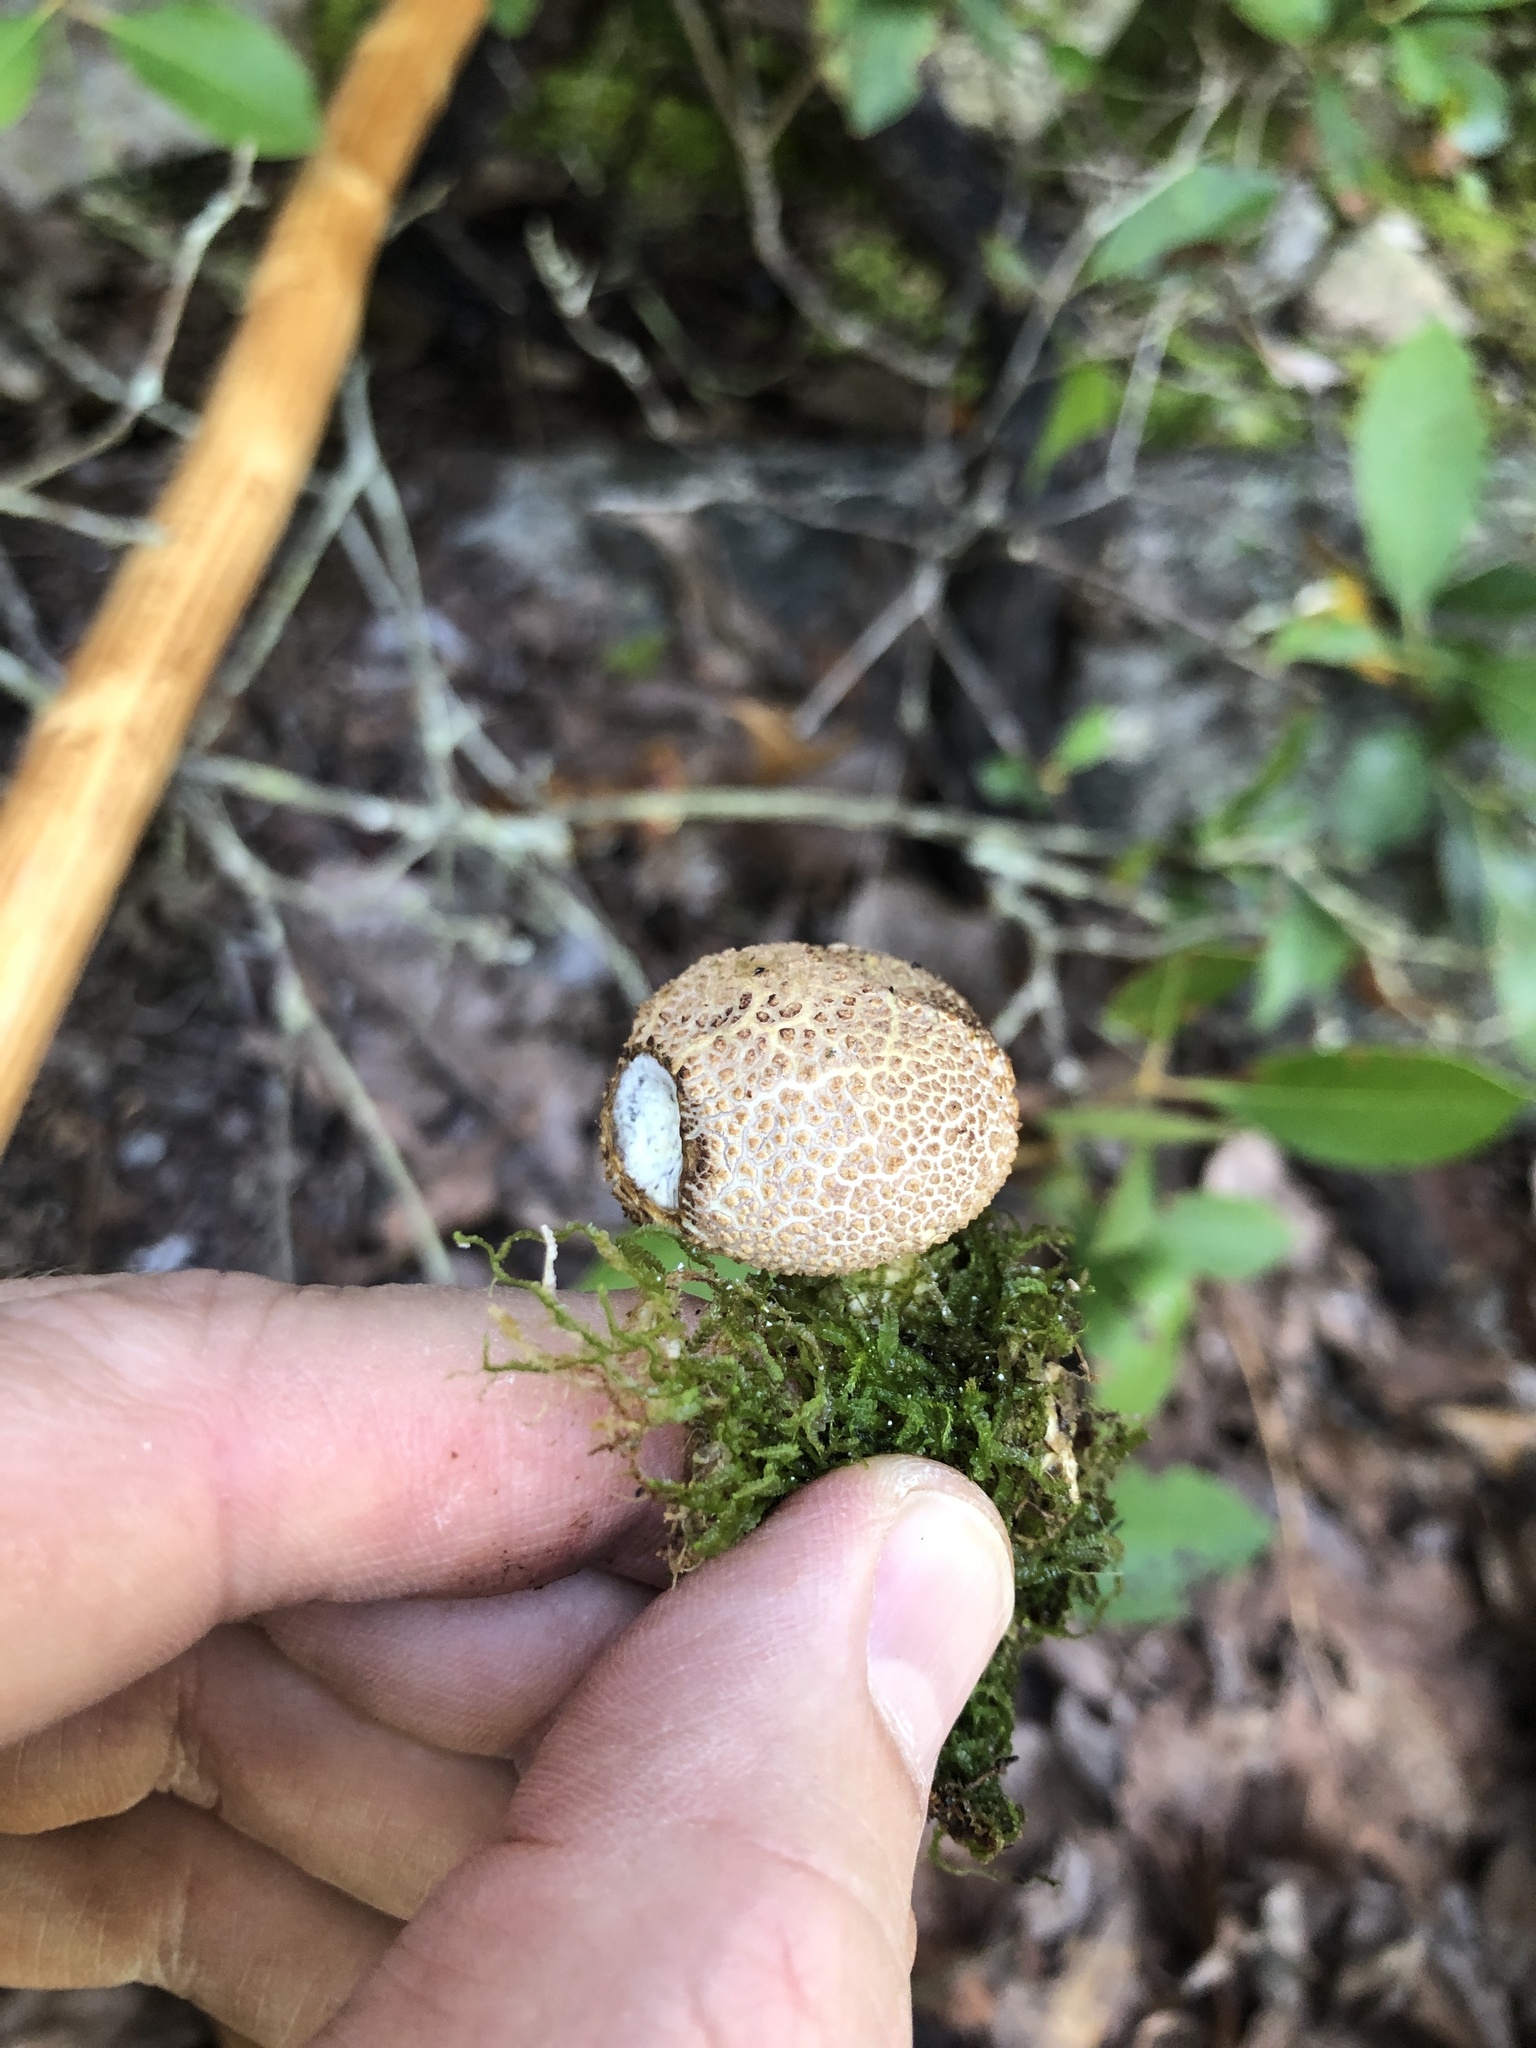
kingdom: Fungi
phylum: Basidiomycota
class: Agaricomycetes
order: Boletales
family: Sclerodermataceae
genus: Scleroderma
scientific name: Scleroderma citrinum
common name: Common earthball
